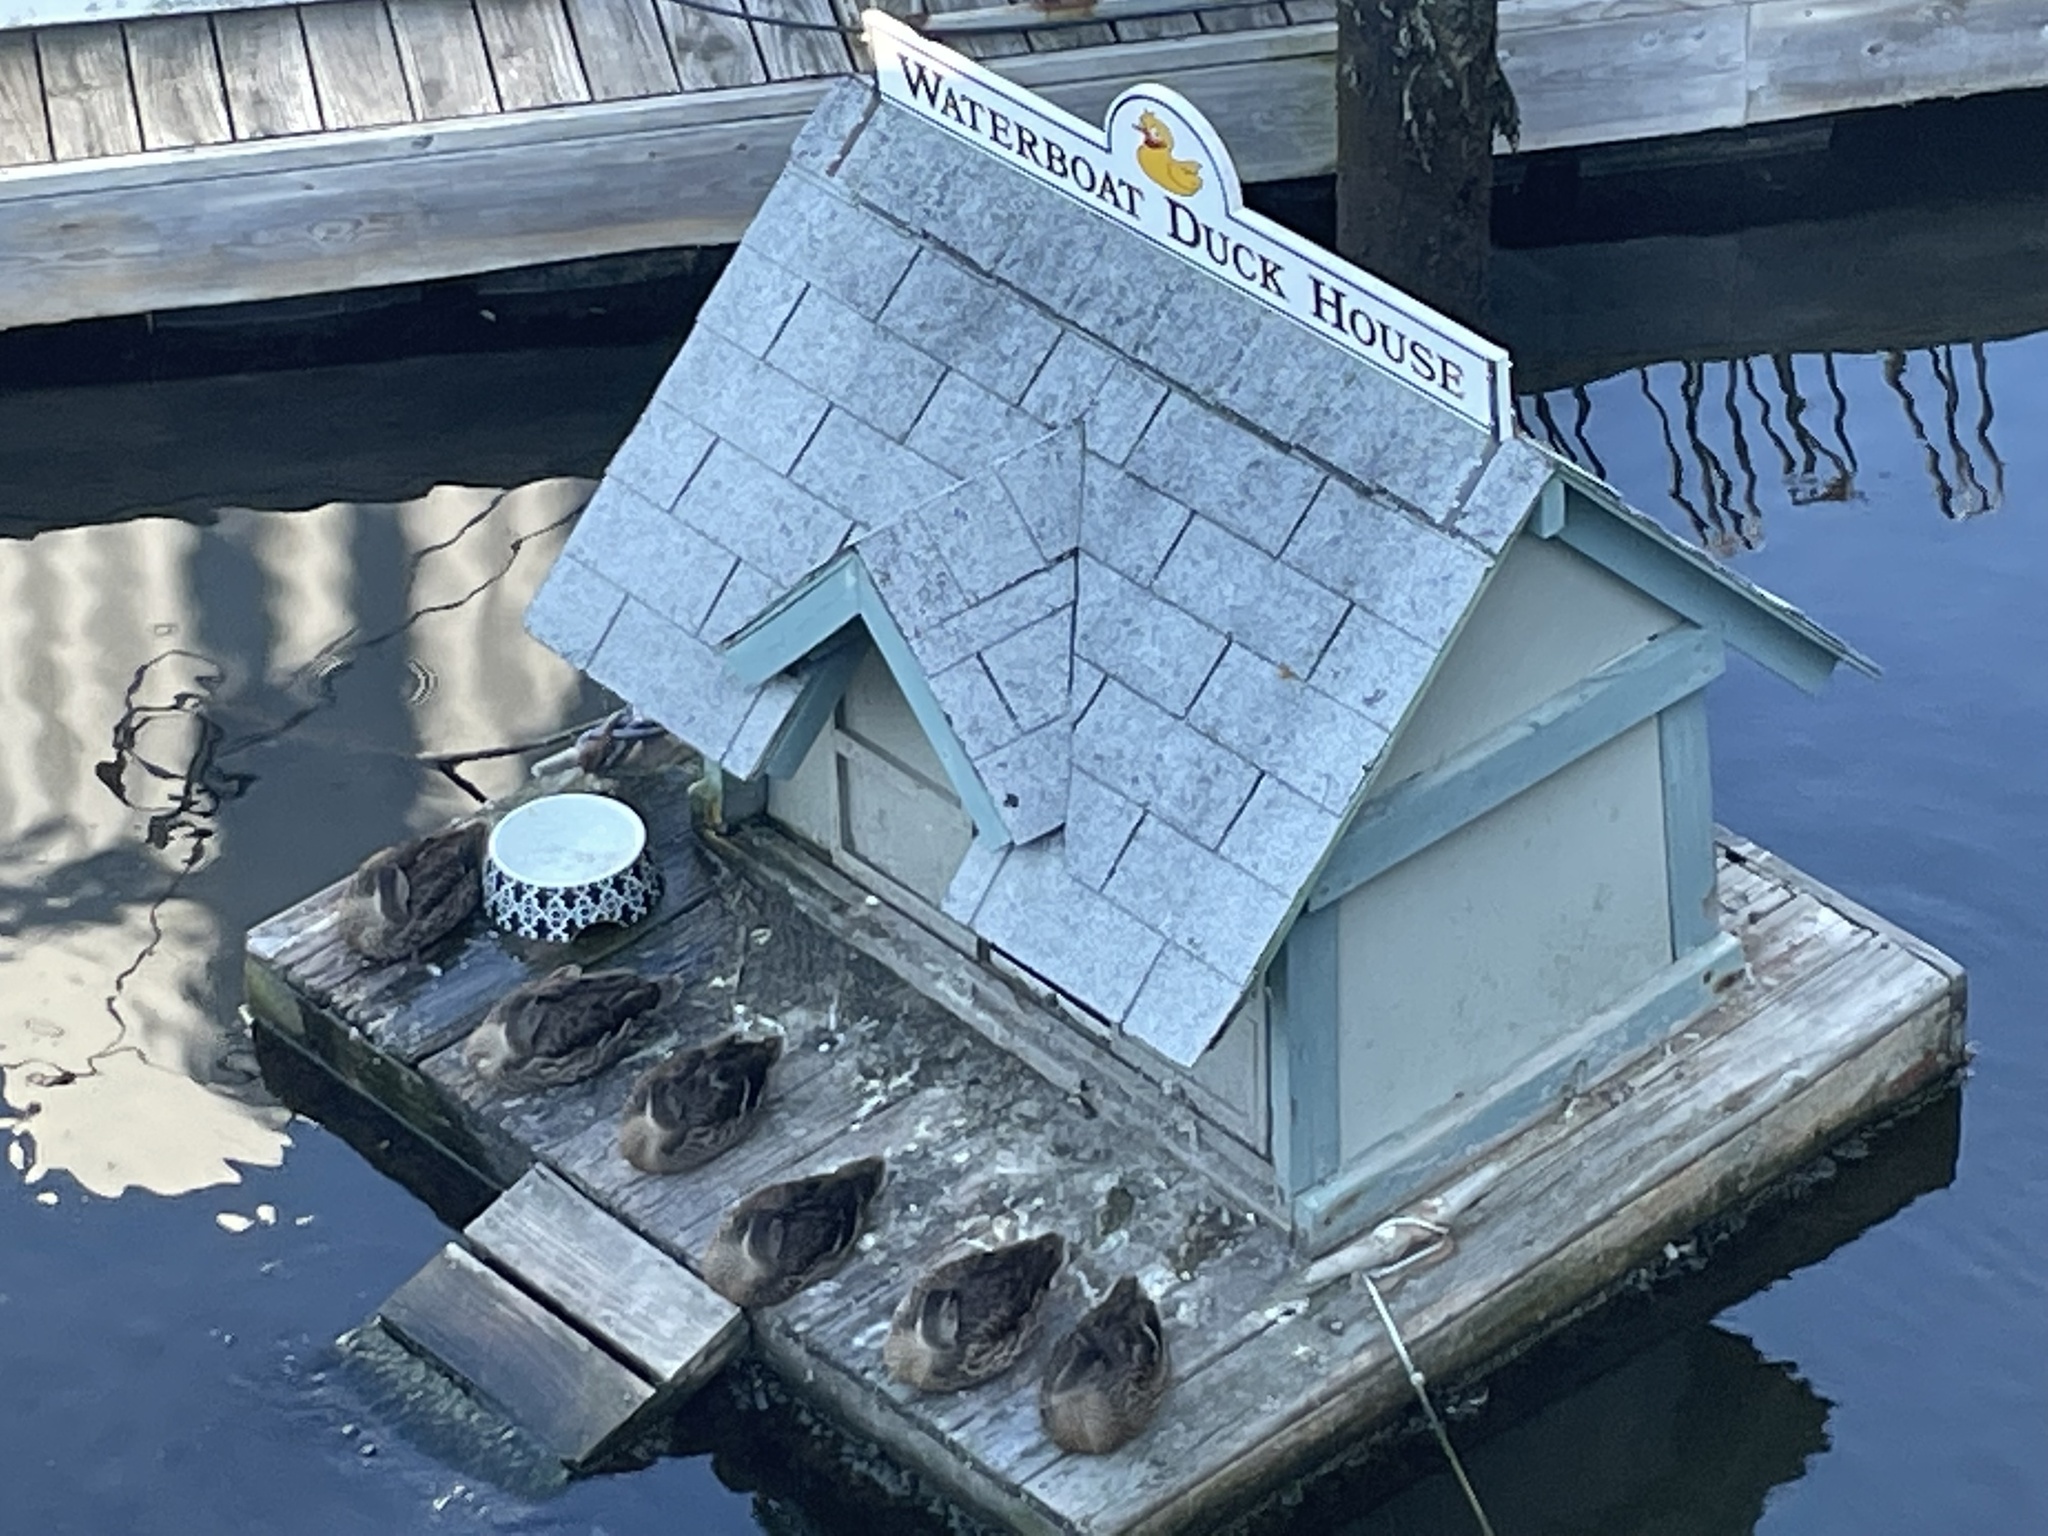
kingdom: Animalia
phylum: Chordata
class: Aves
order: Anseriformes
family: Anatidae
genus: Anas
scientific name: Anas platyrhynchos
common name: Mallard
